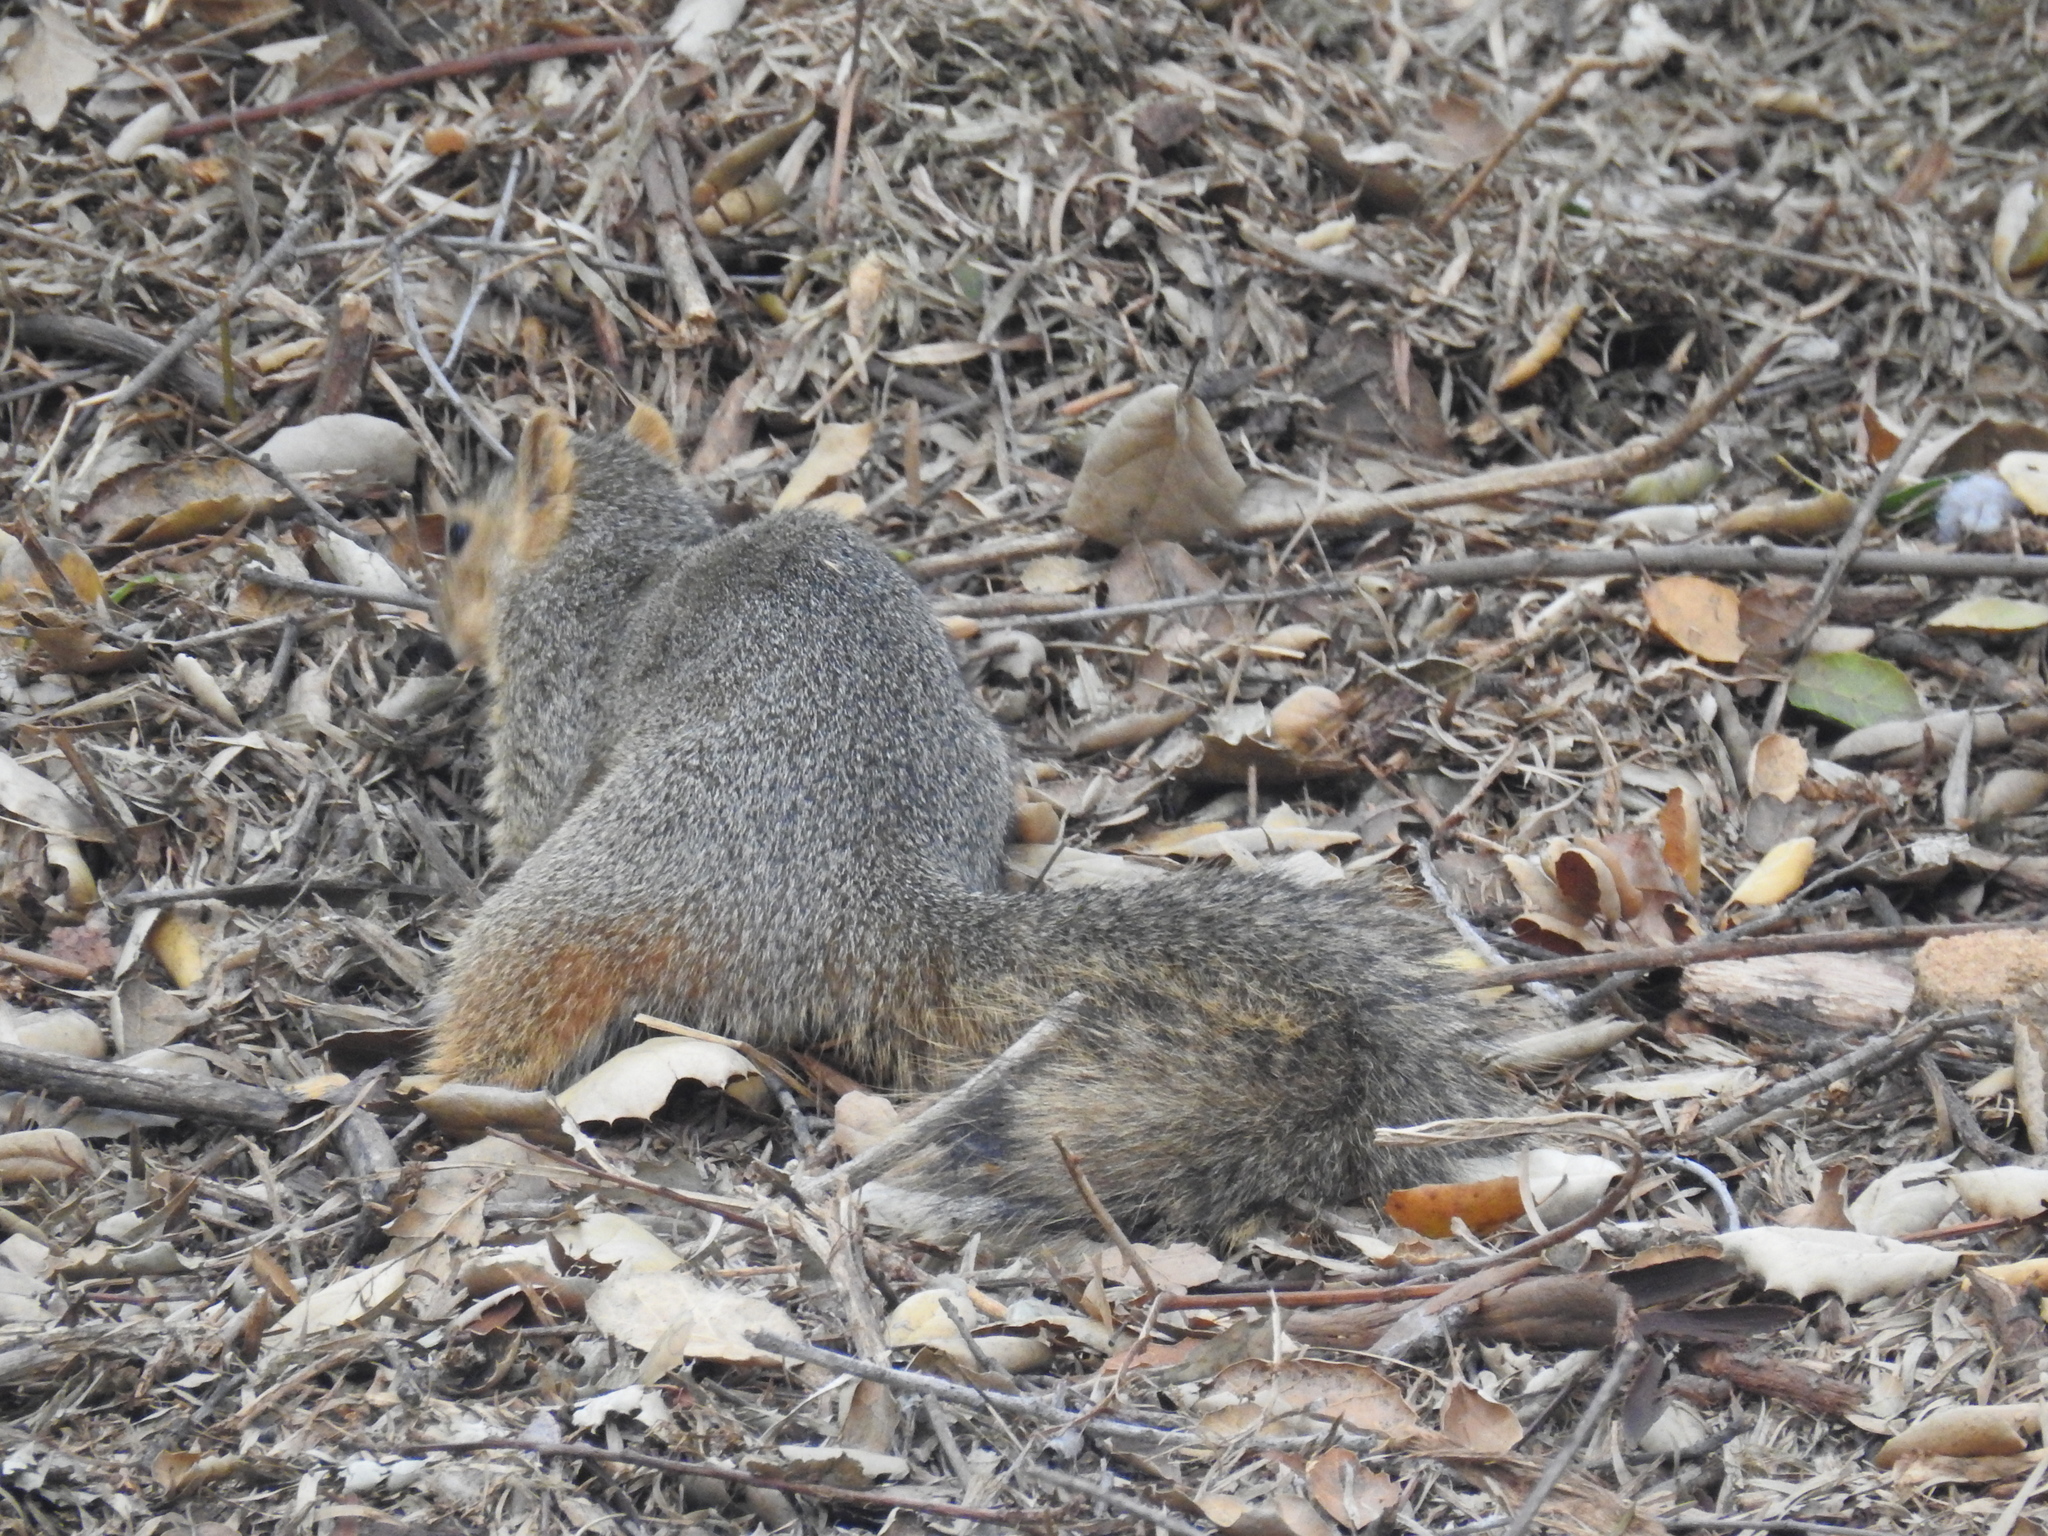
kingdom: Animalia
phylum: Chordata
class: Mammalia
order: Rodentia
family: Sciuridae
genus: Sciurus
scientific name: Sciurus niger
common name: Fox squirrel
